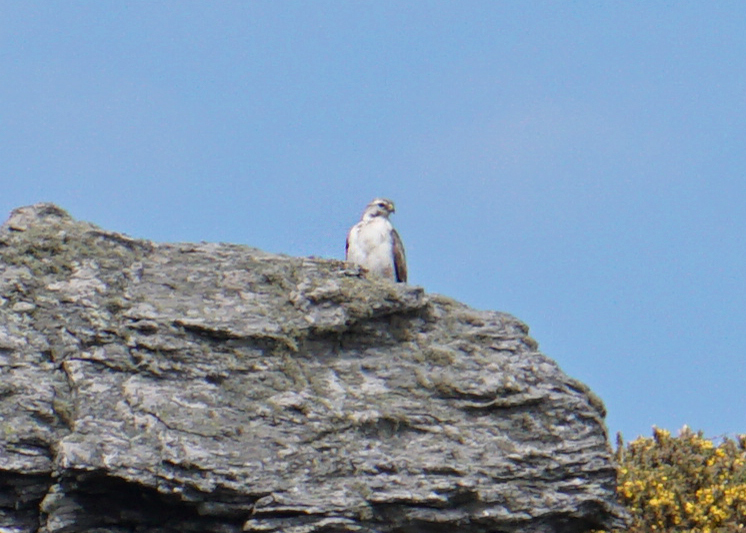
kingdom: Animalia
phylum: Chordata
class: Aves
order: Accipitriformes
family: Accipitridae
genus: Buteo
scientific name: Buteo buteo
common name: Common buzzard
